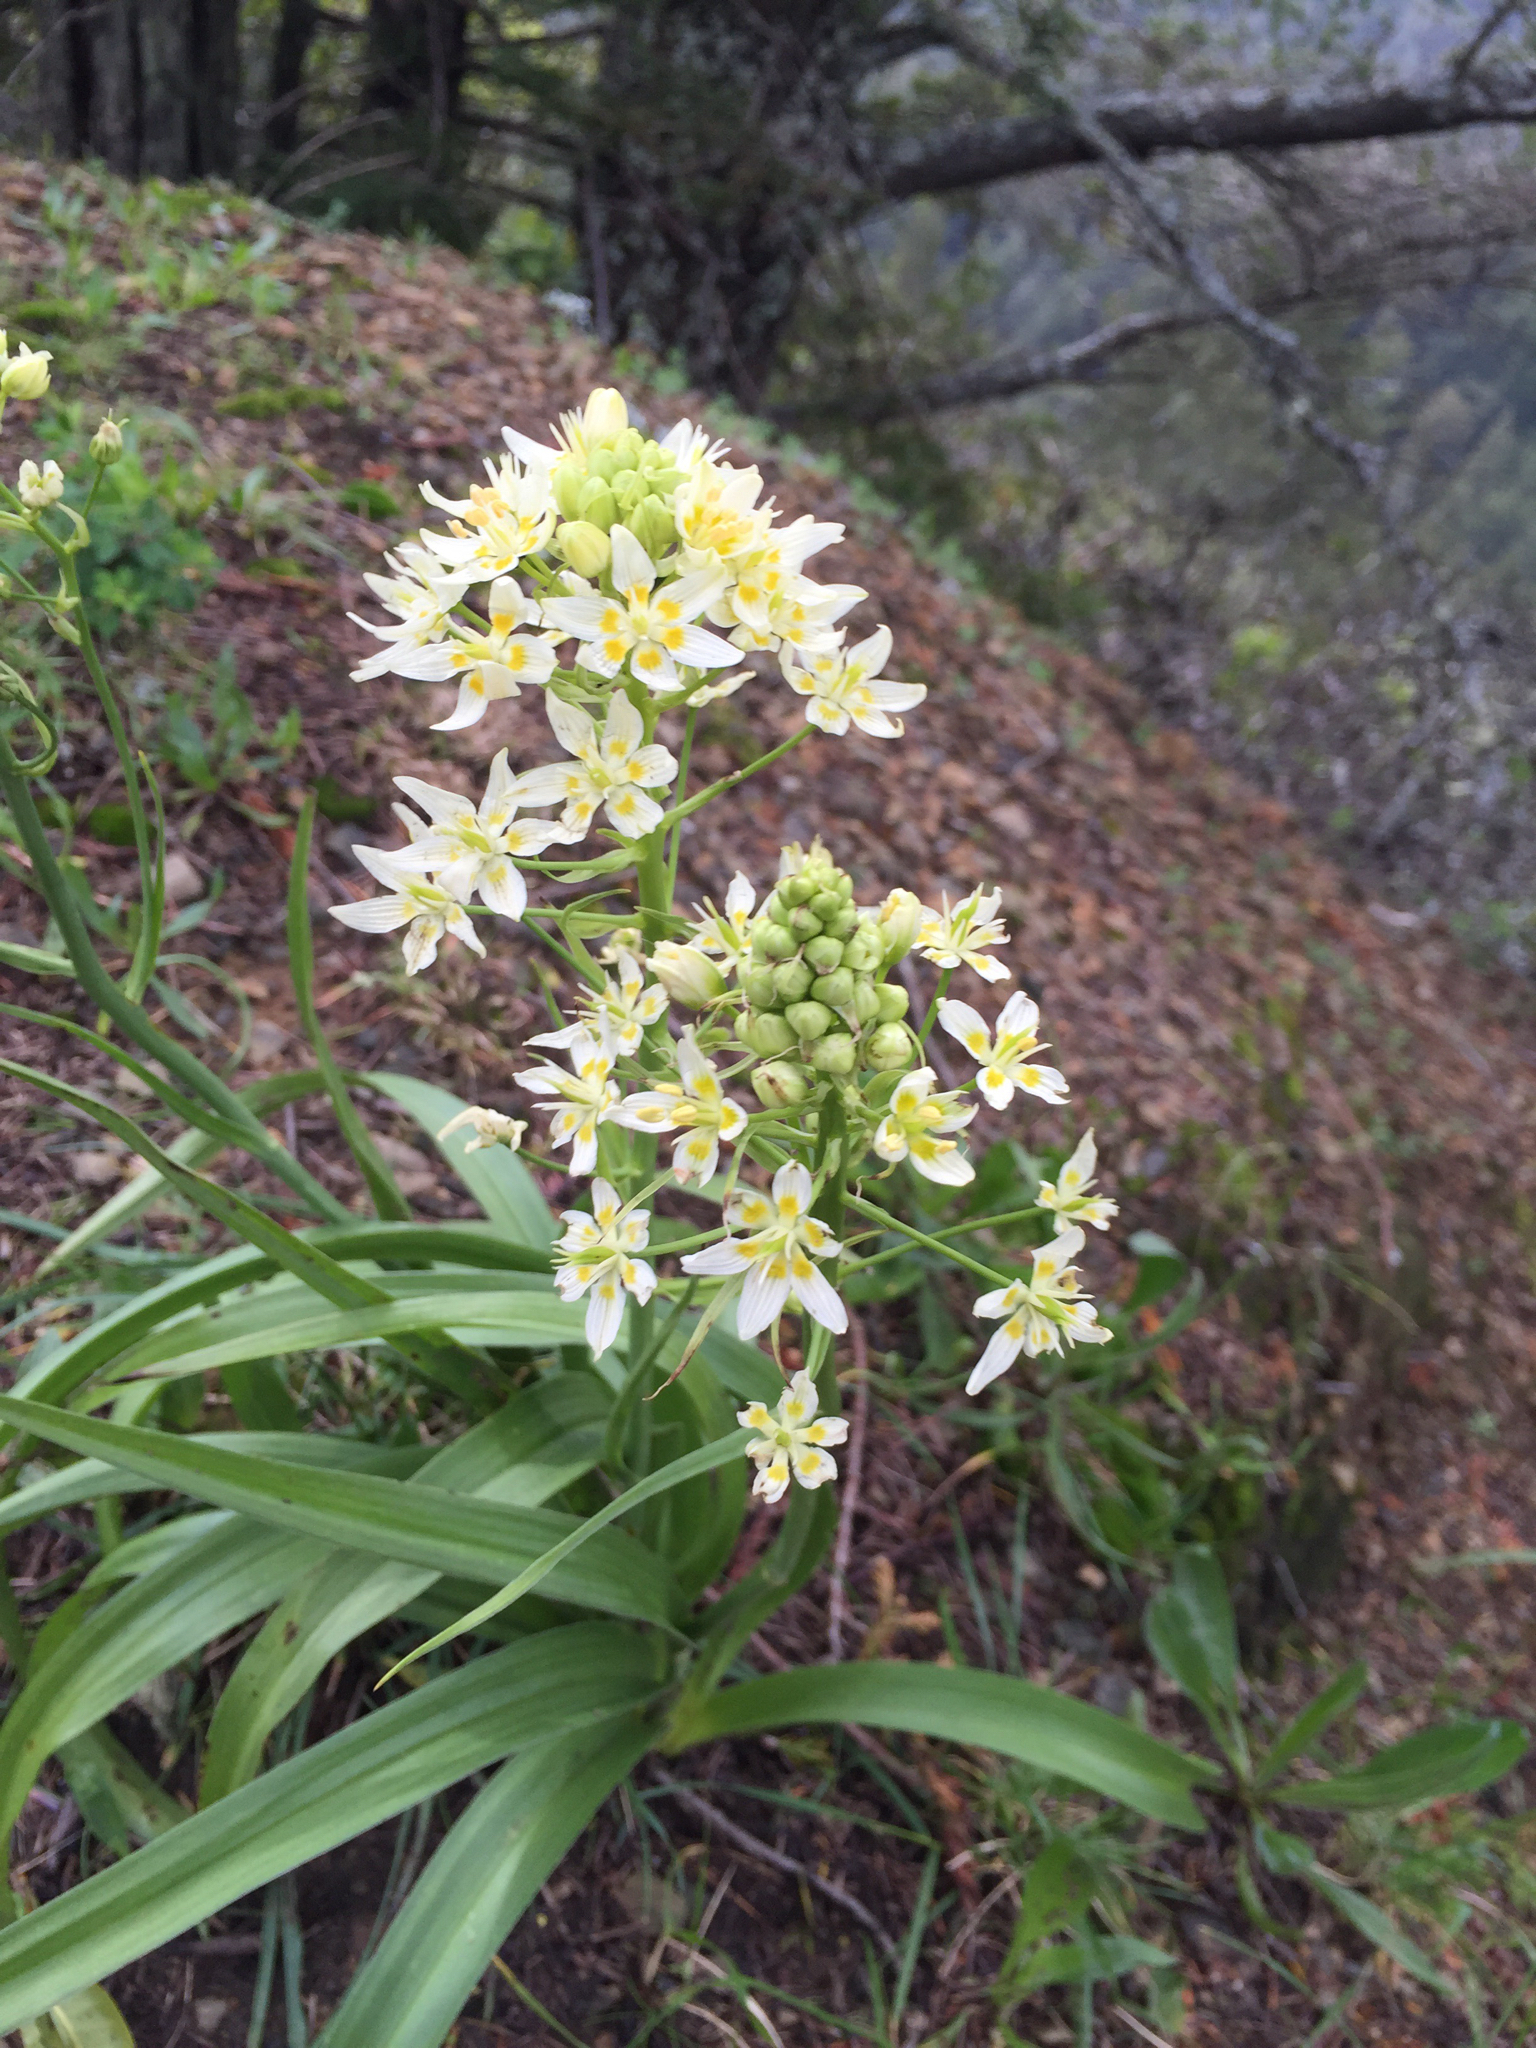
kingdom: Plantae
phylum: Tracheophyta
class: Liliopsida
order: Liliales
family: Melanthiaceae
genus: Toxicoscordion
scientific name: Toxicoscordion fremontii
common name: Fremont's death camas
